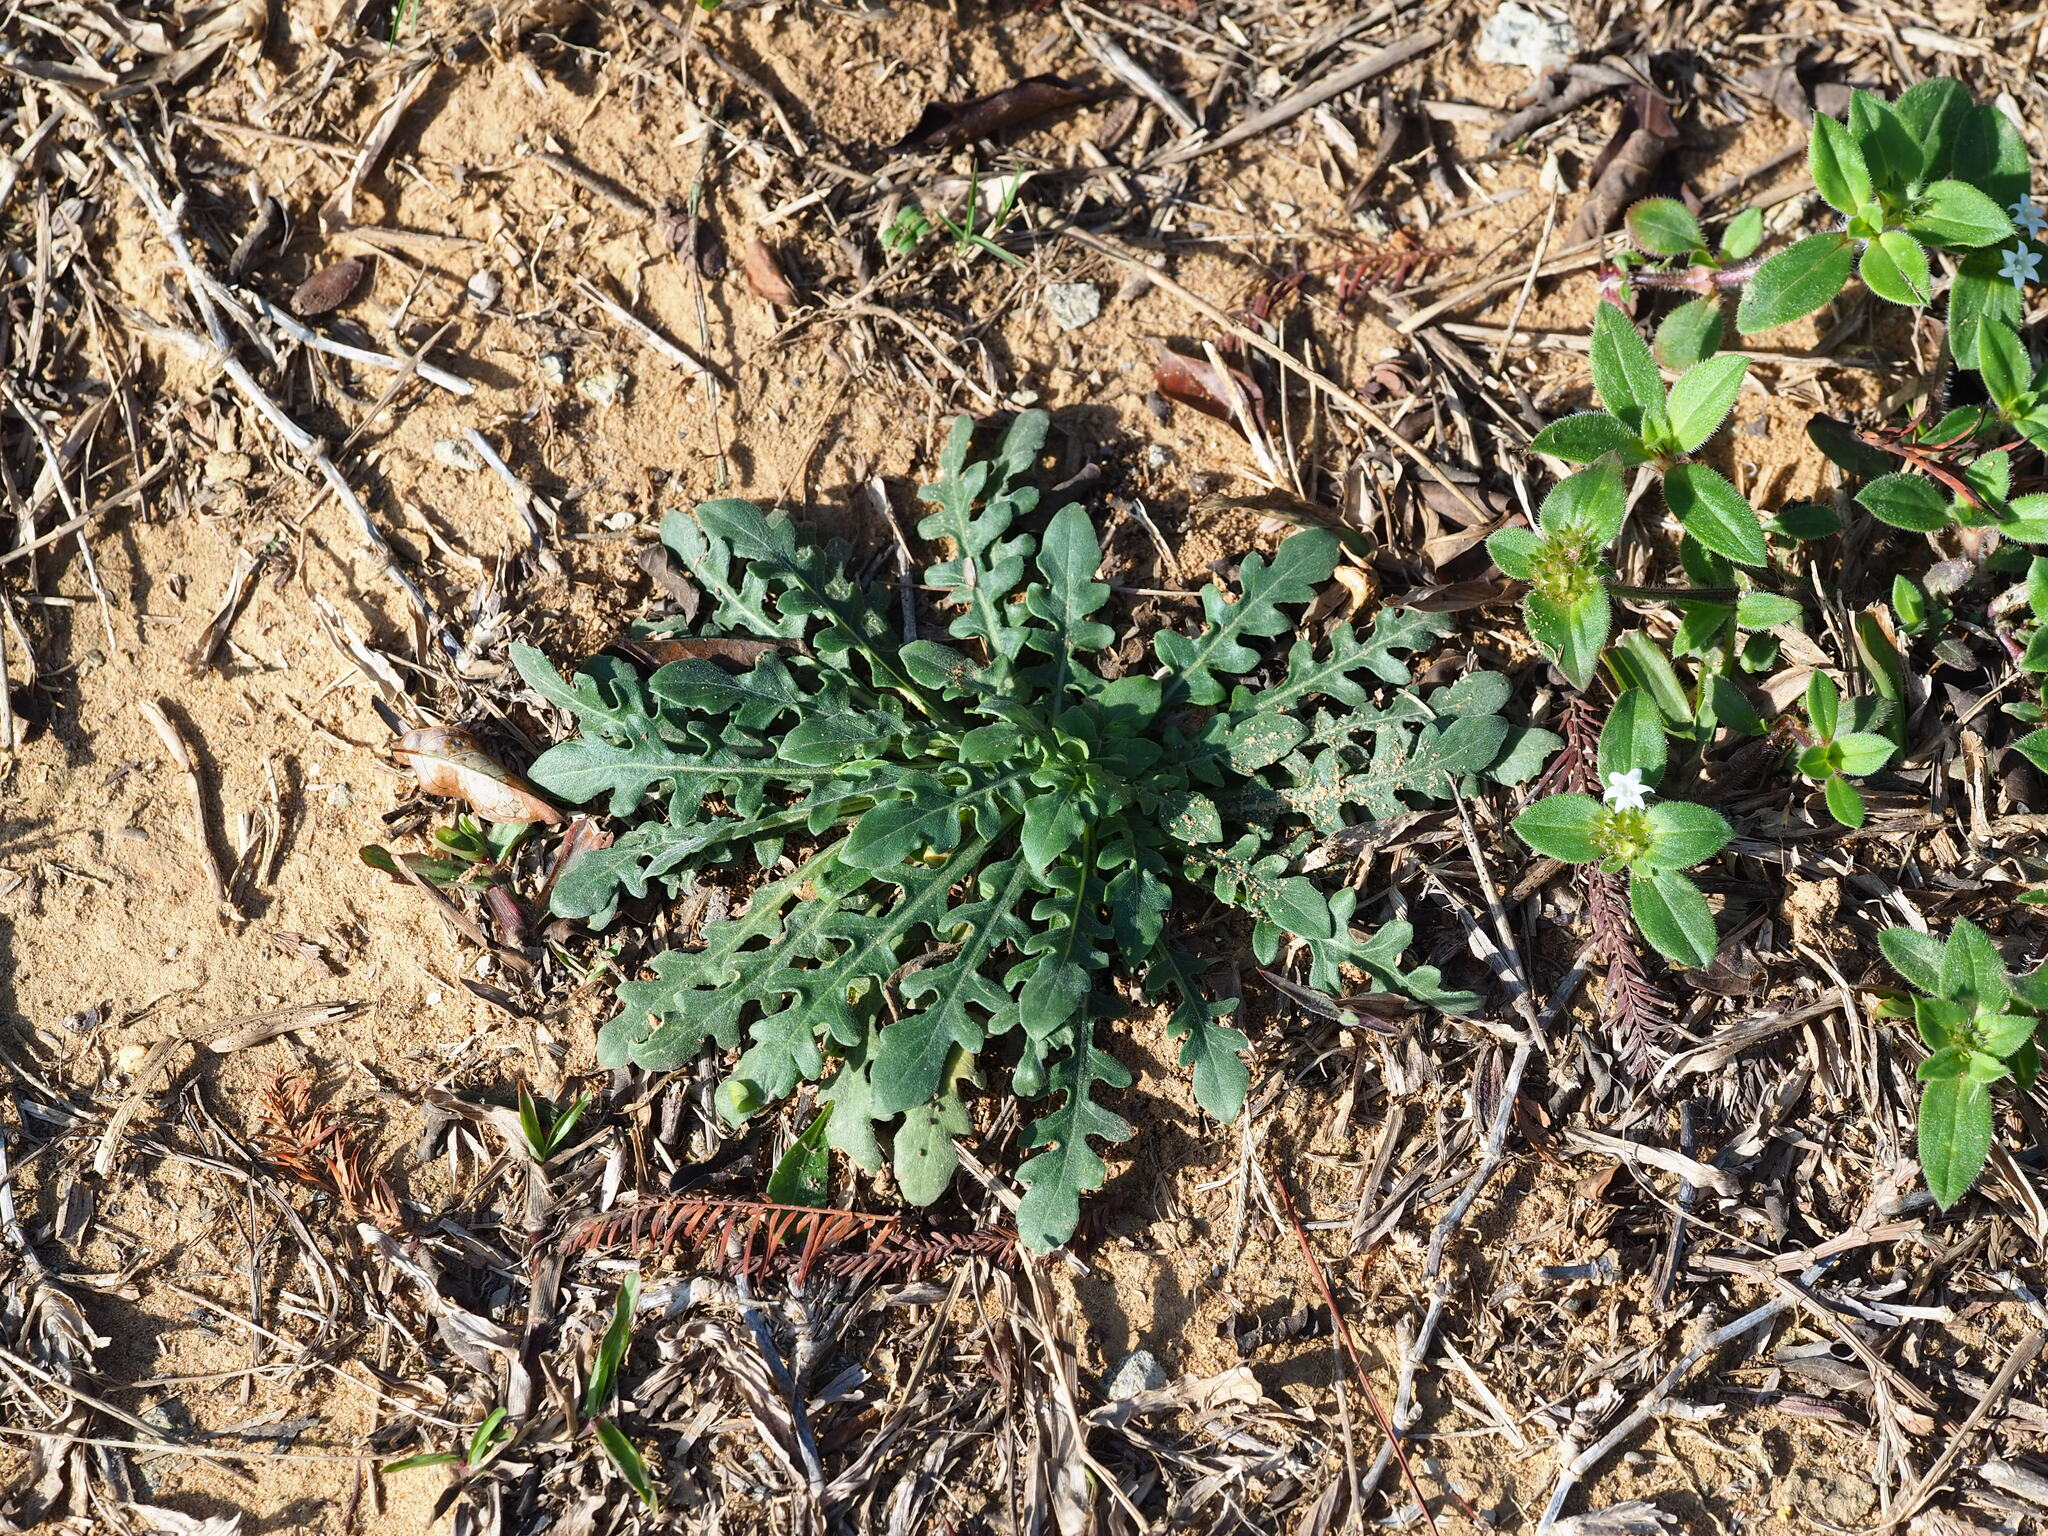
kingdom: Plantae
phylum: Tracheophyta
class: Magnoliopsida
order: Myrtales
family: Onagraceae
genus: Oenothera
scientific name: Oenothera laciniata
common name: Cut-leaved evening-primrose
